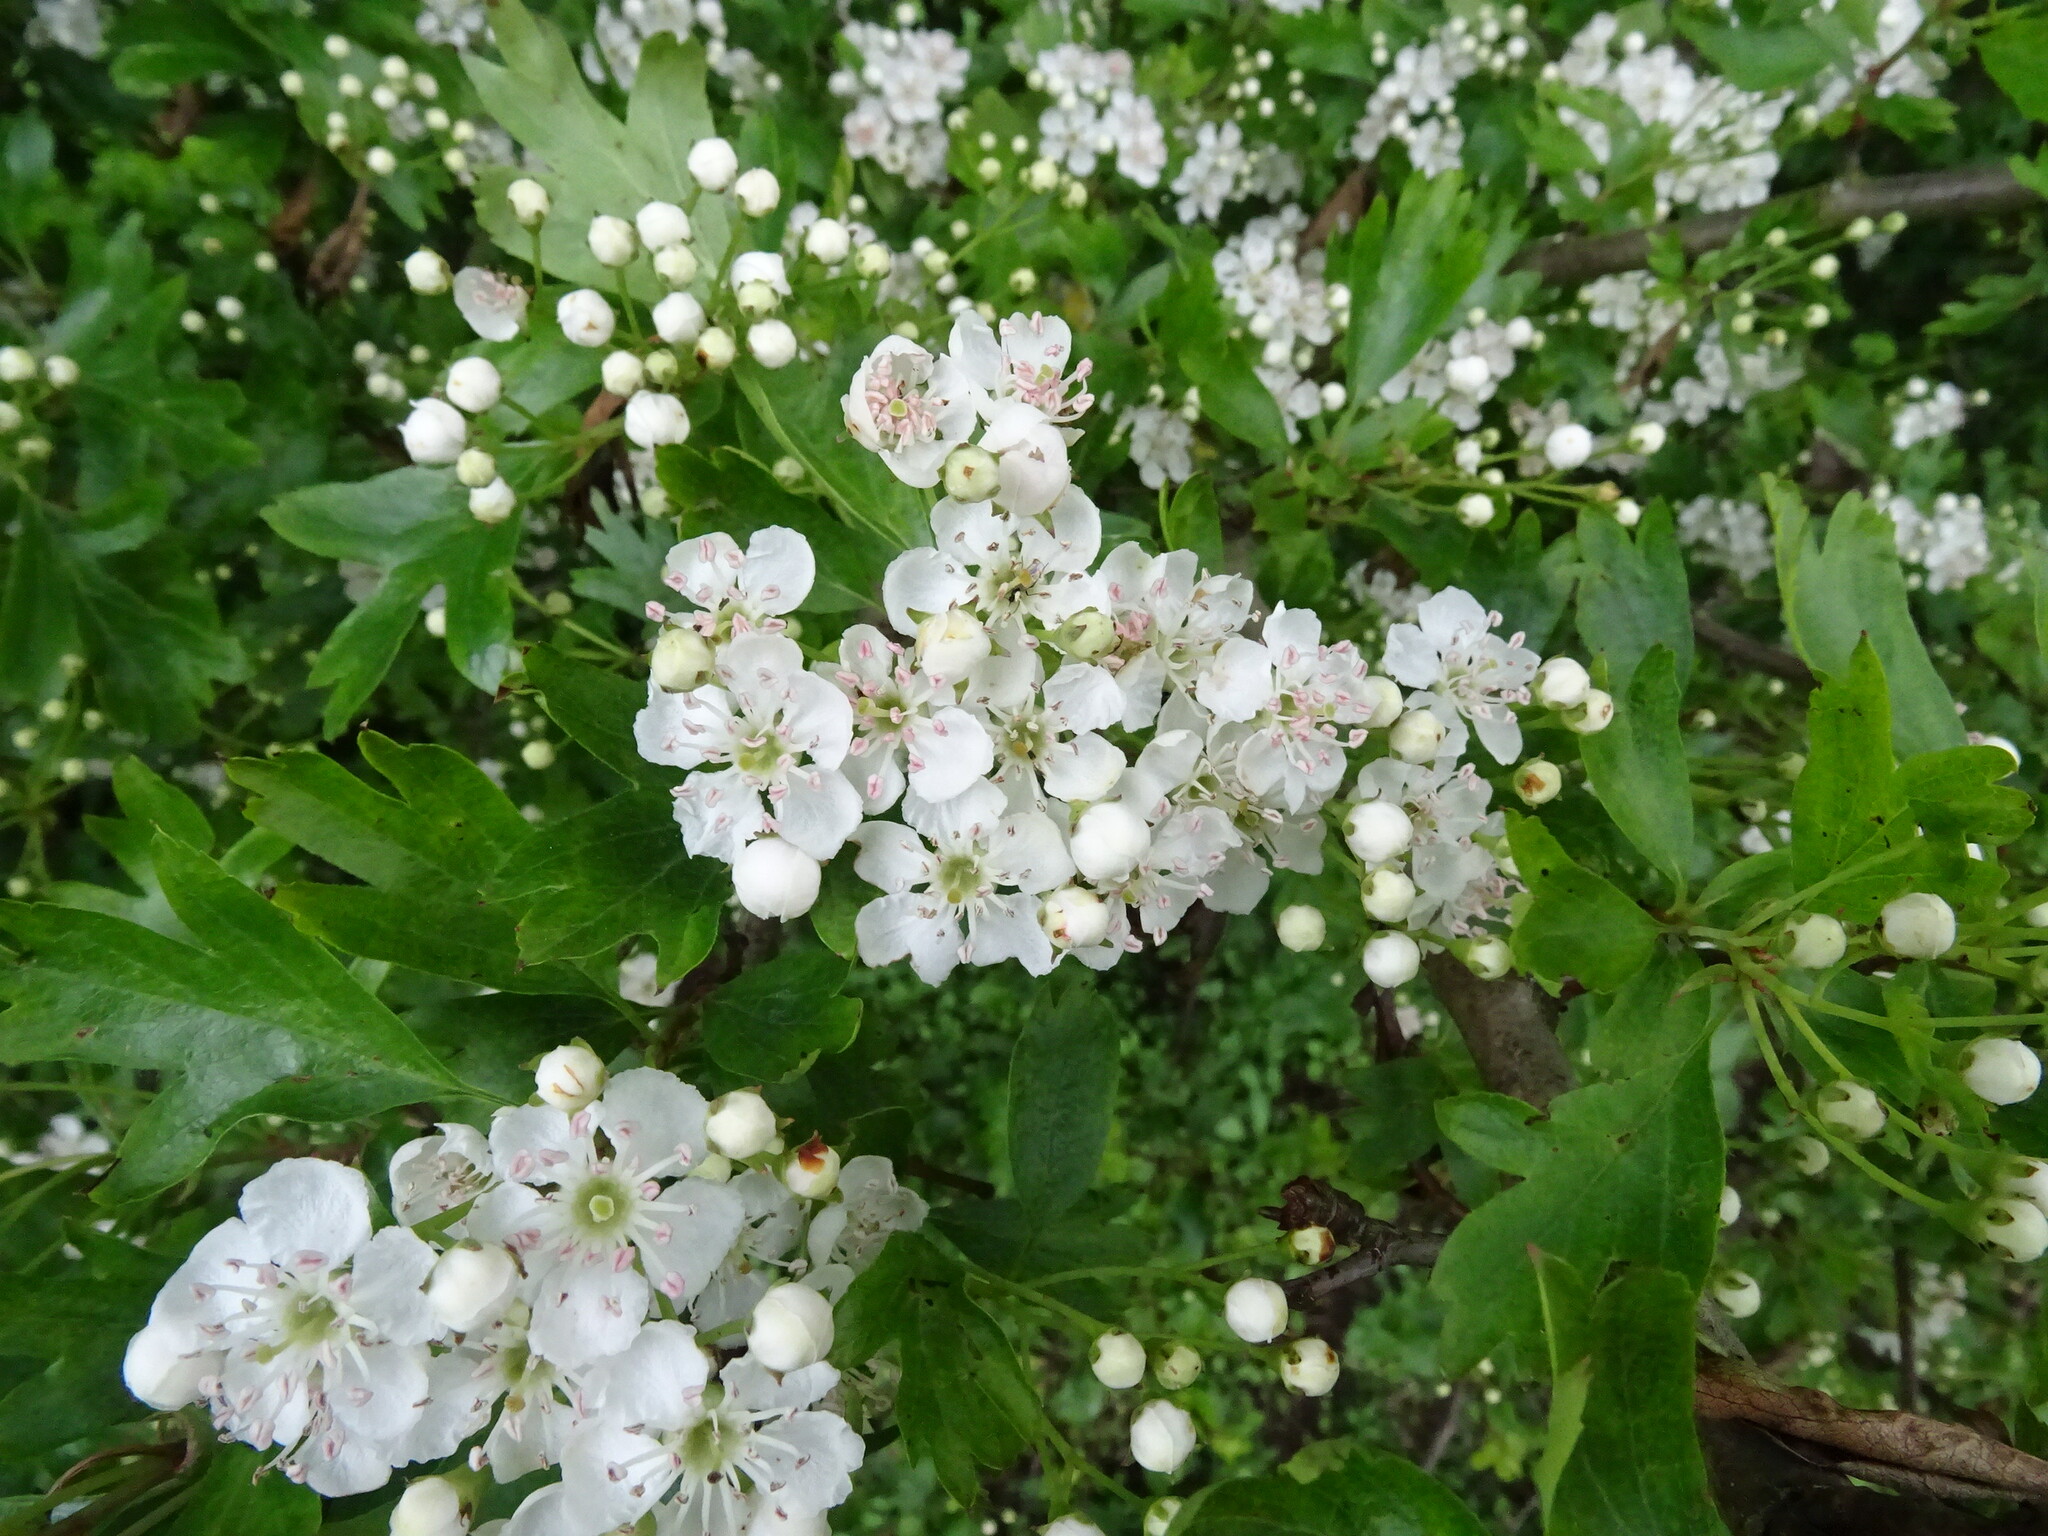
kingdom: Plantae
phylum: Tracheophyta
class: Magnoliopsida
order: Rosales
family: Rosaceae
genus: Crataegus
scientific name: Crataegus monogyna
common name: Hawthorn
